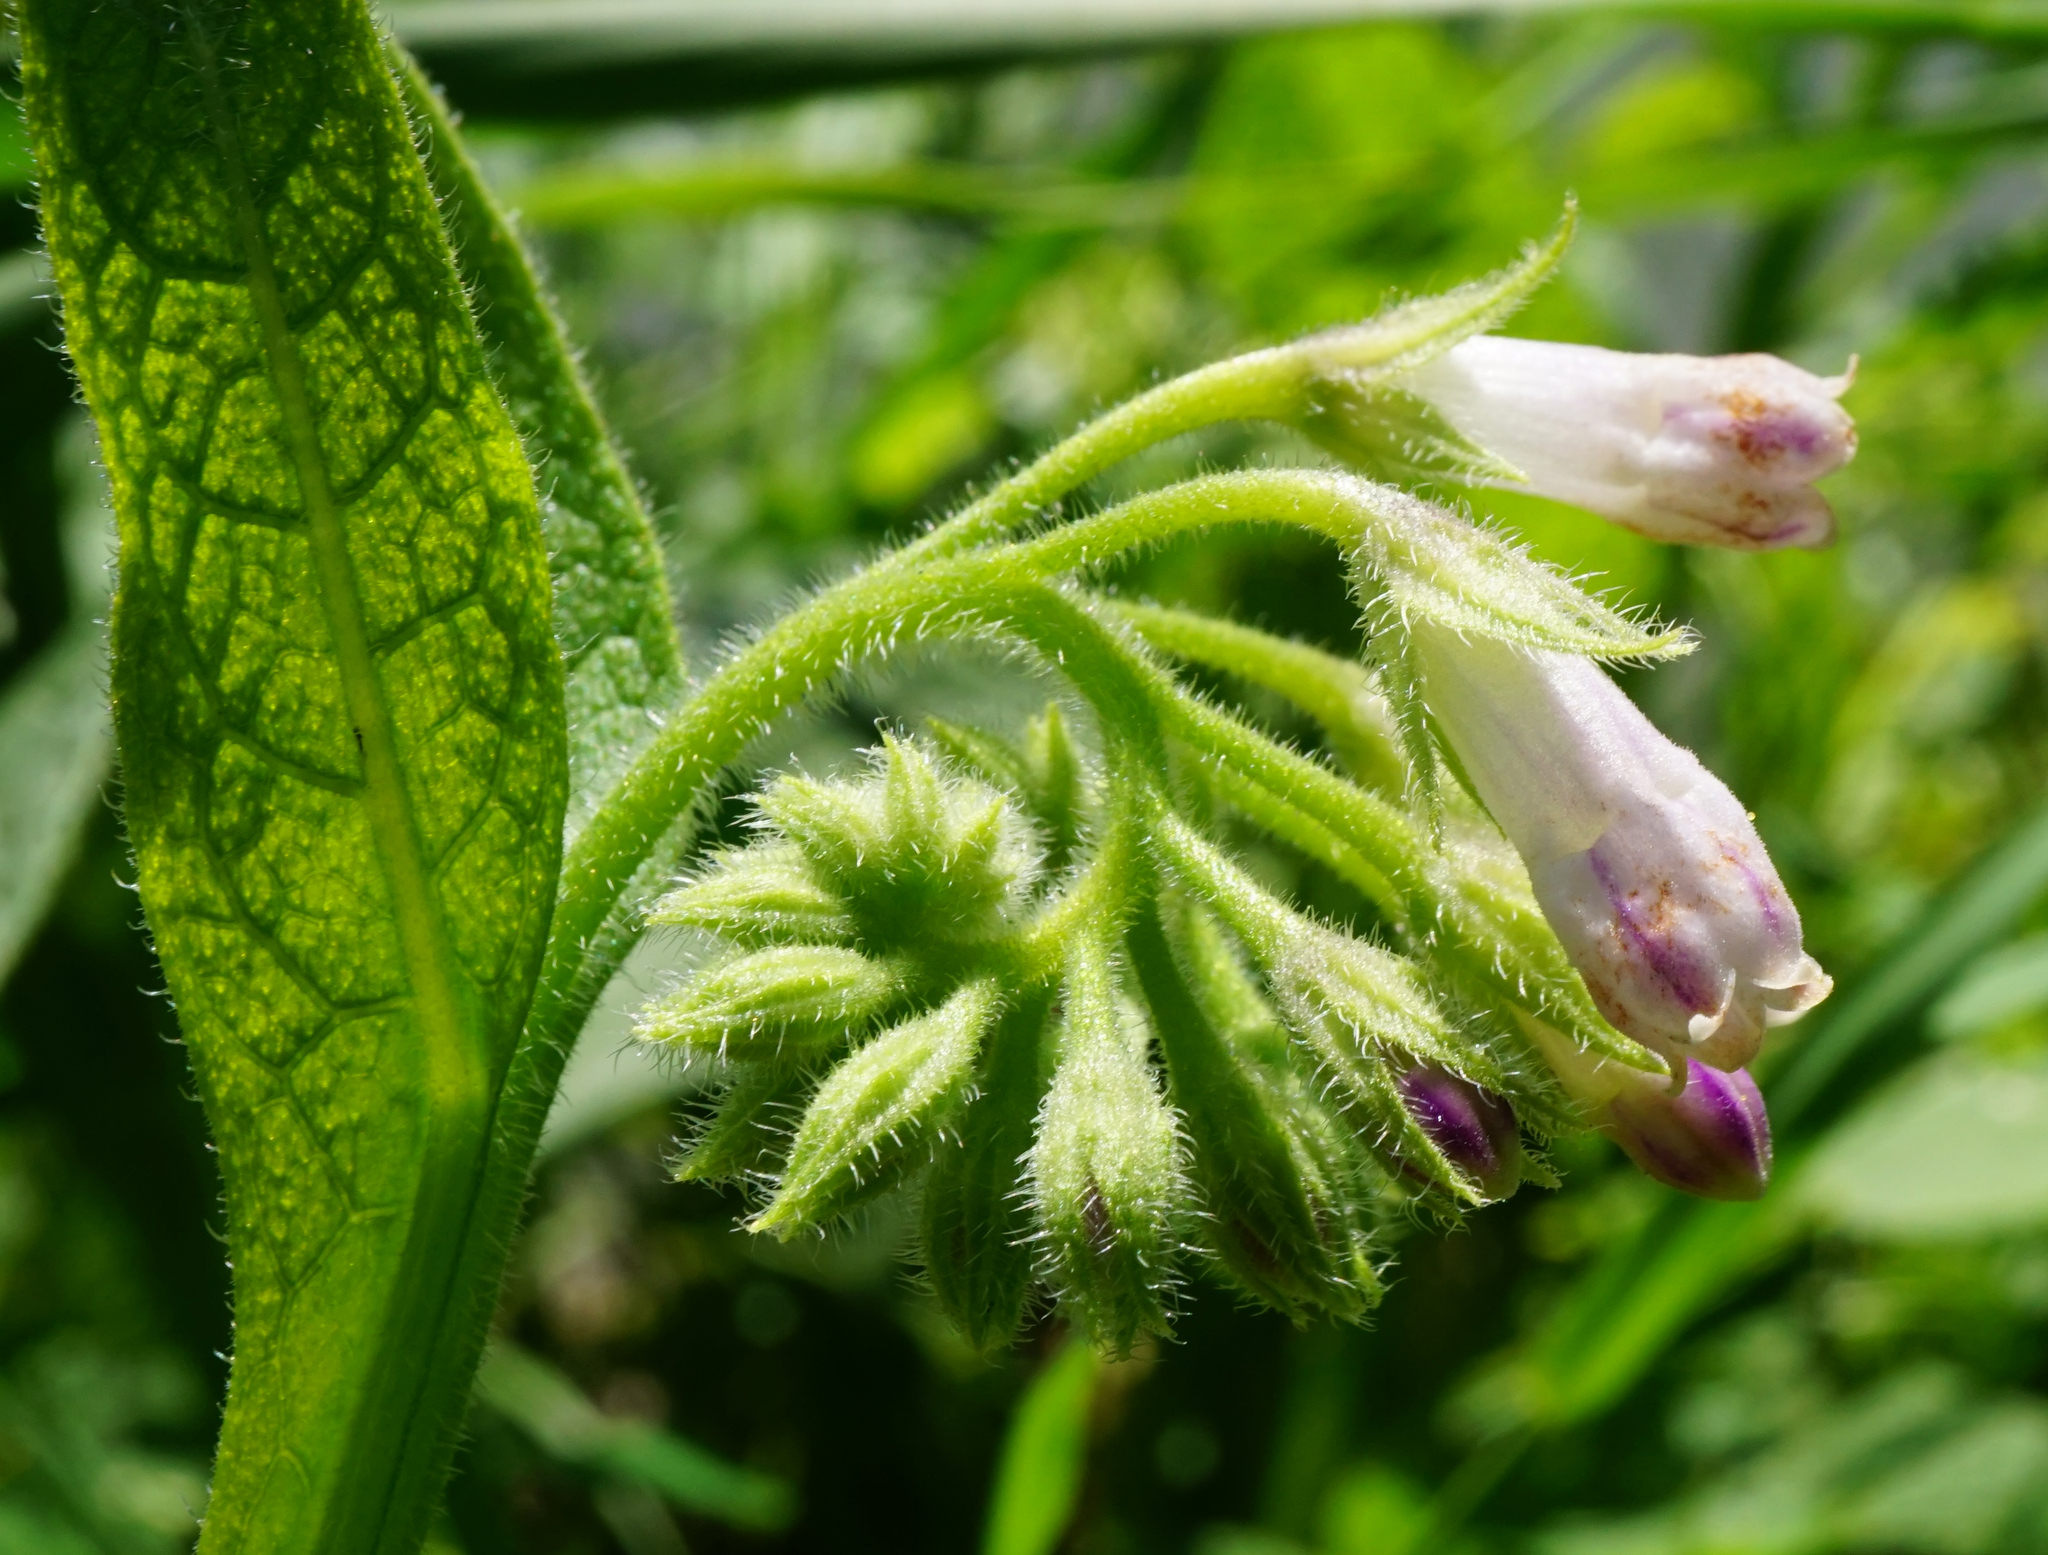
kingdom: Plantae
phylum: Tracheophyta
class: Magnoliopsida
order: Boraginales
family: Boraginaceae
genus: Symphytum
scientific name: Symphytum officinale
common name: Common comfrey
